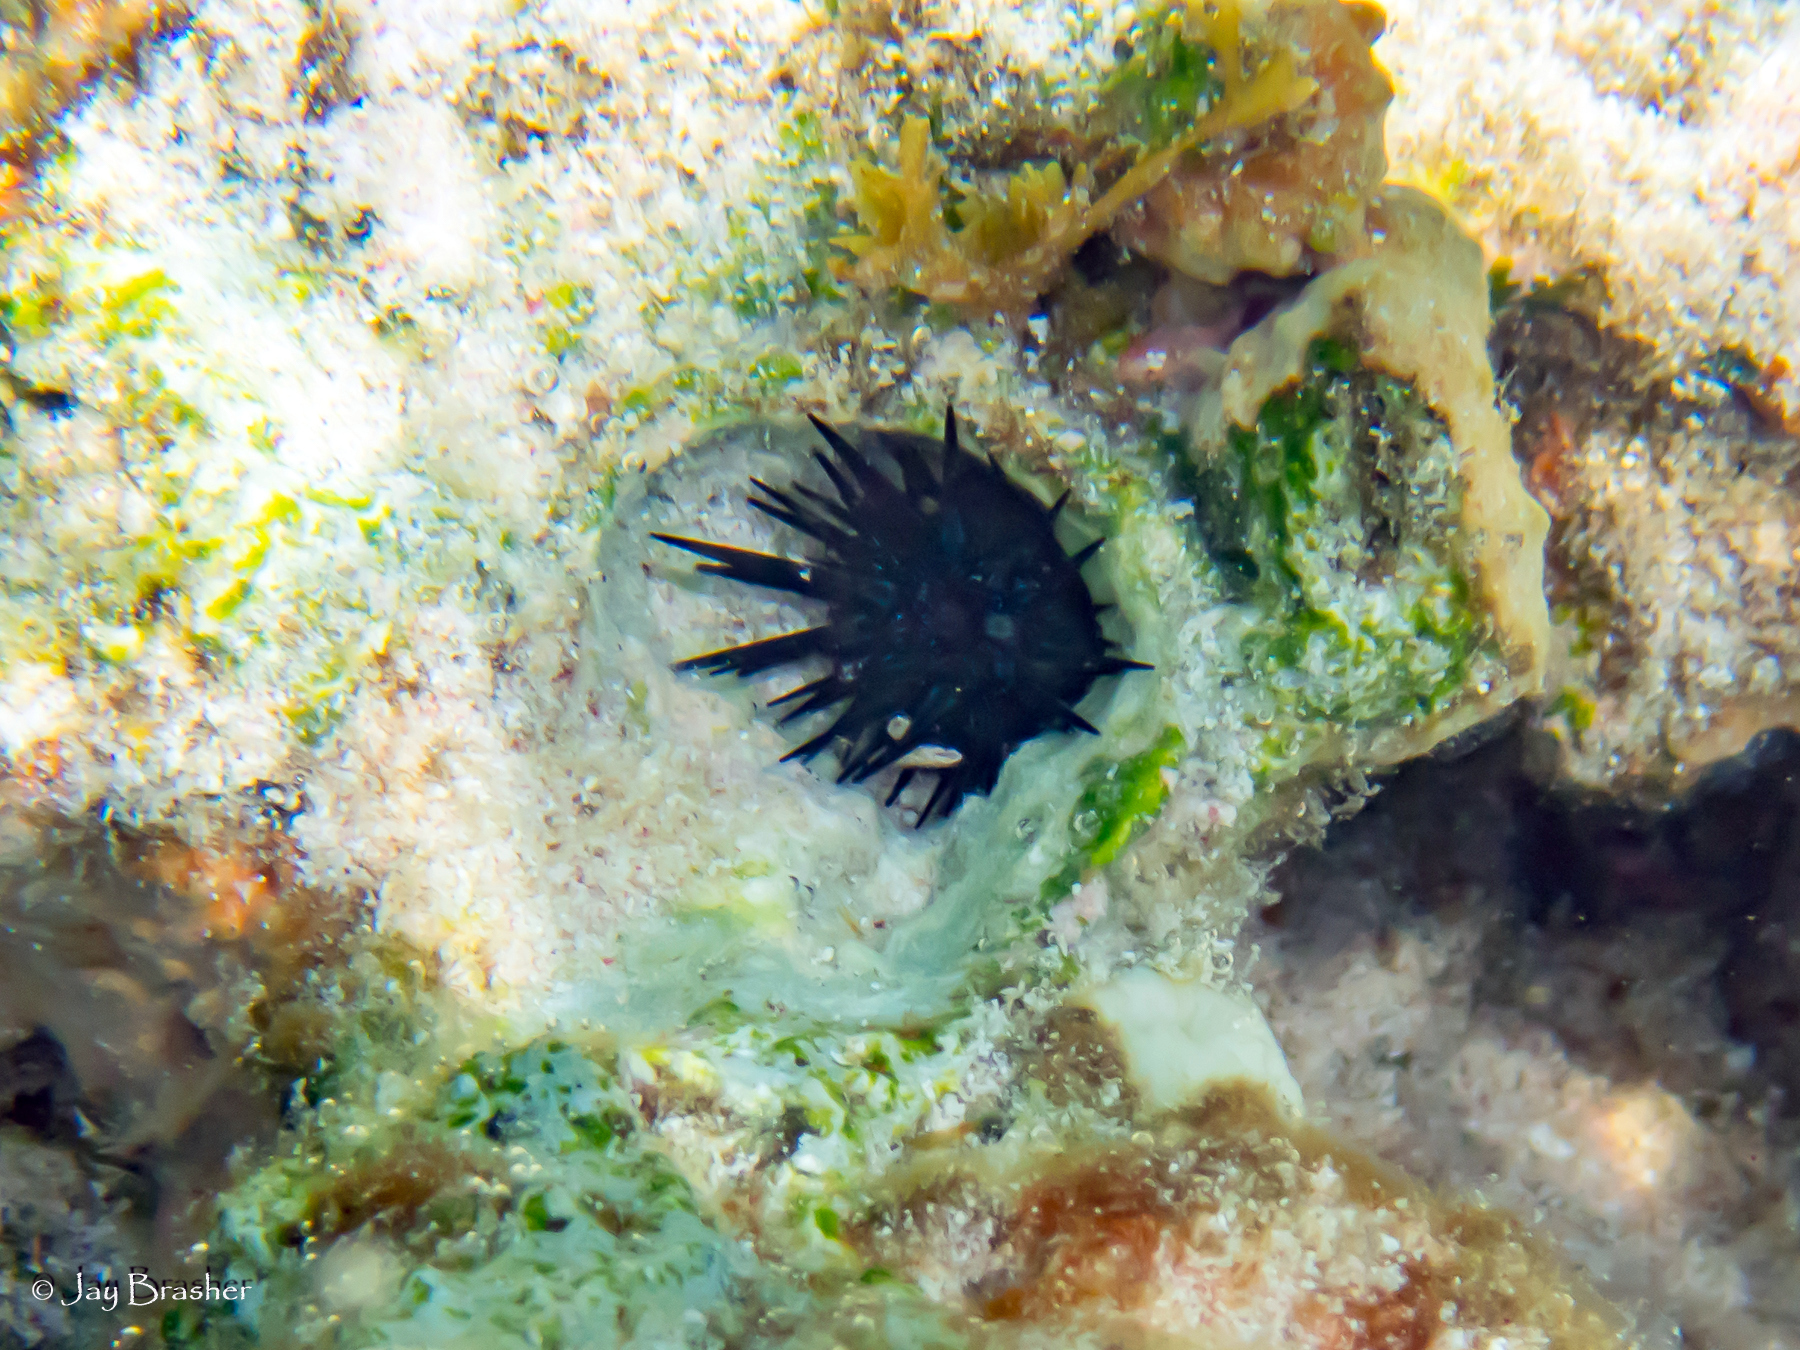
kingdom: Animalia
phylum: Echinodermata
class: Echinoidea
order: Camarodonta
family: Echinometridae
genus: Echinometra
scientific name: Echinometra lucunter
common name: Rock urchin
